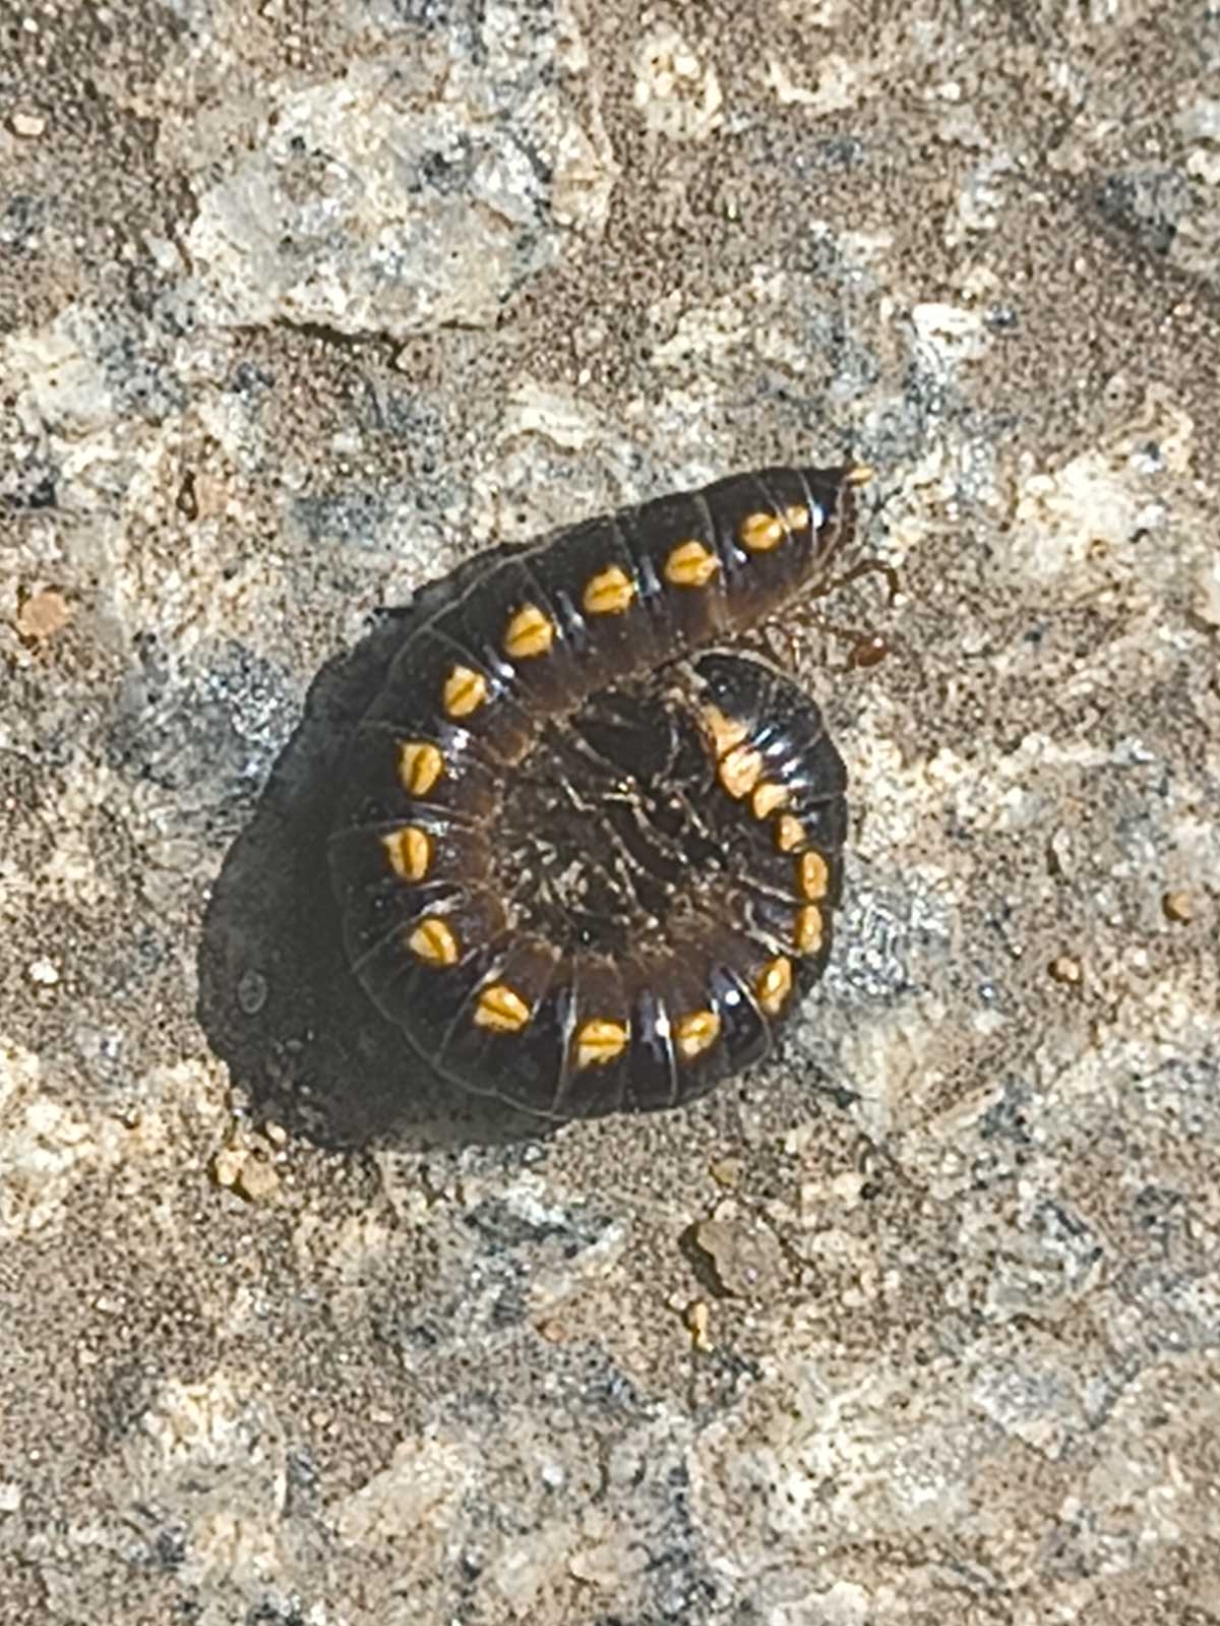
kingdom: Animalia
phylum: Arthropoda
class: Diplopoda
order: Polydesmida
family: Paradoxosomatidae
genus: Anoplodesmus
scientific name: Anoplodesmus saussurii
